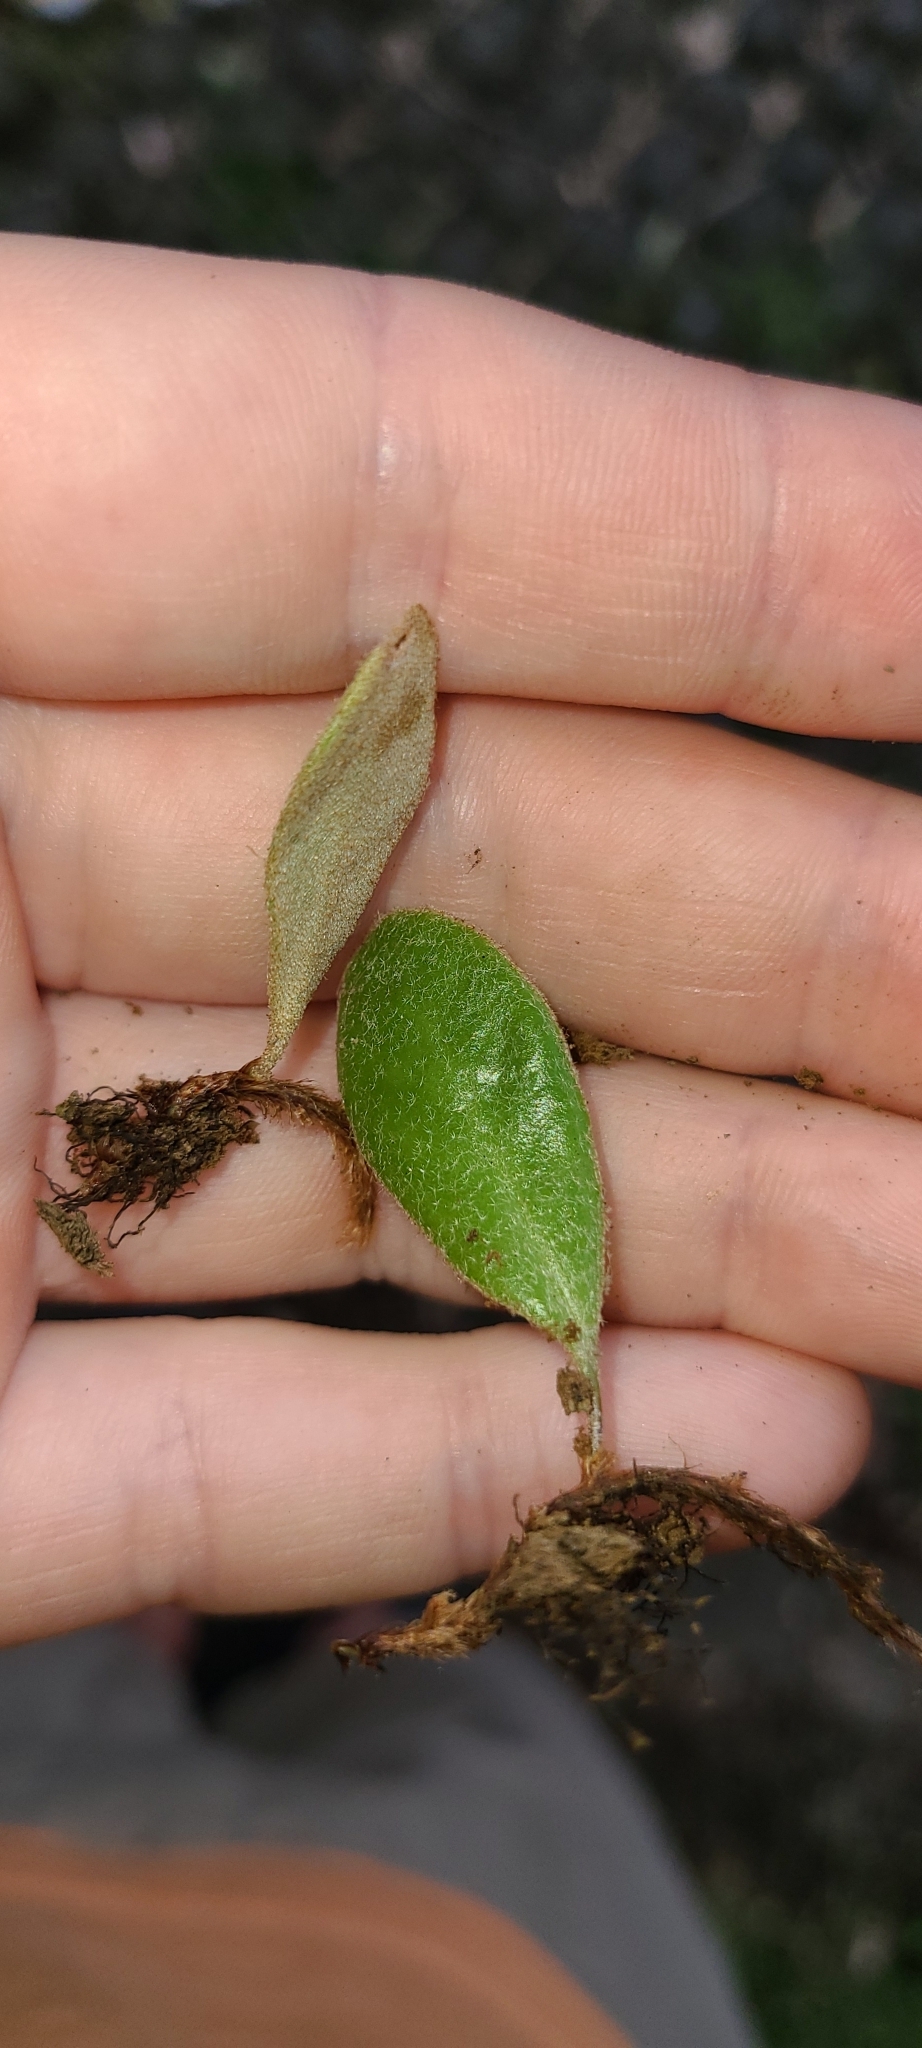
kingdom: Plantae
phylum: Tracheophyta
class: Polypodiopsida
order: Polypodiales
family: Polypodiaceae
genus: Pyrrosia
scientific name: Pyrrosia eleagnifolia
